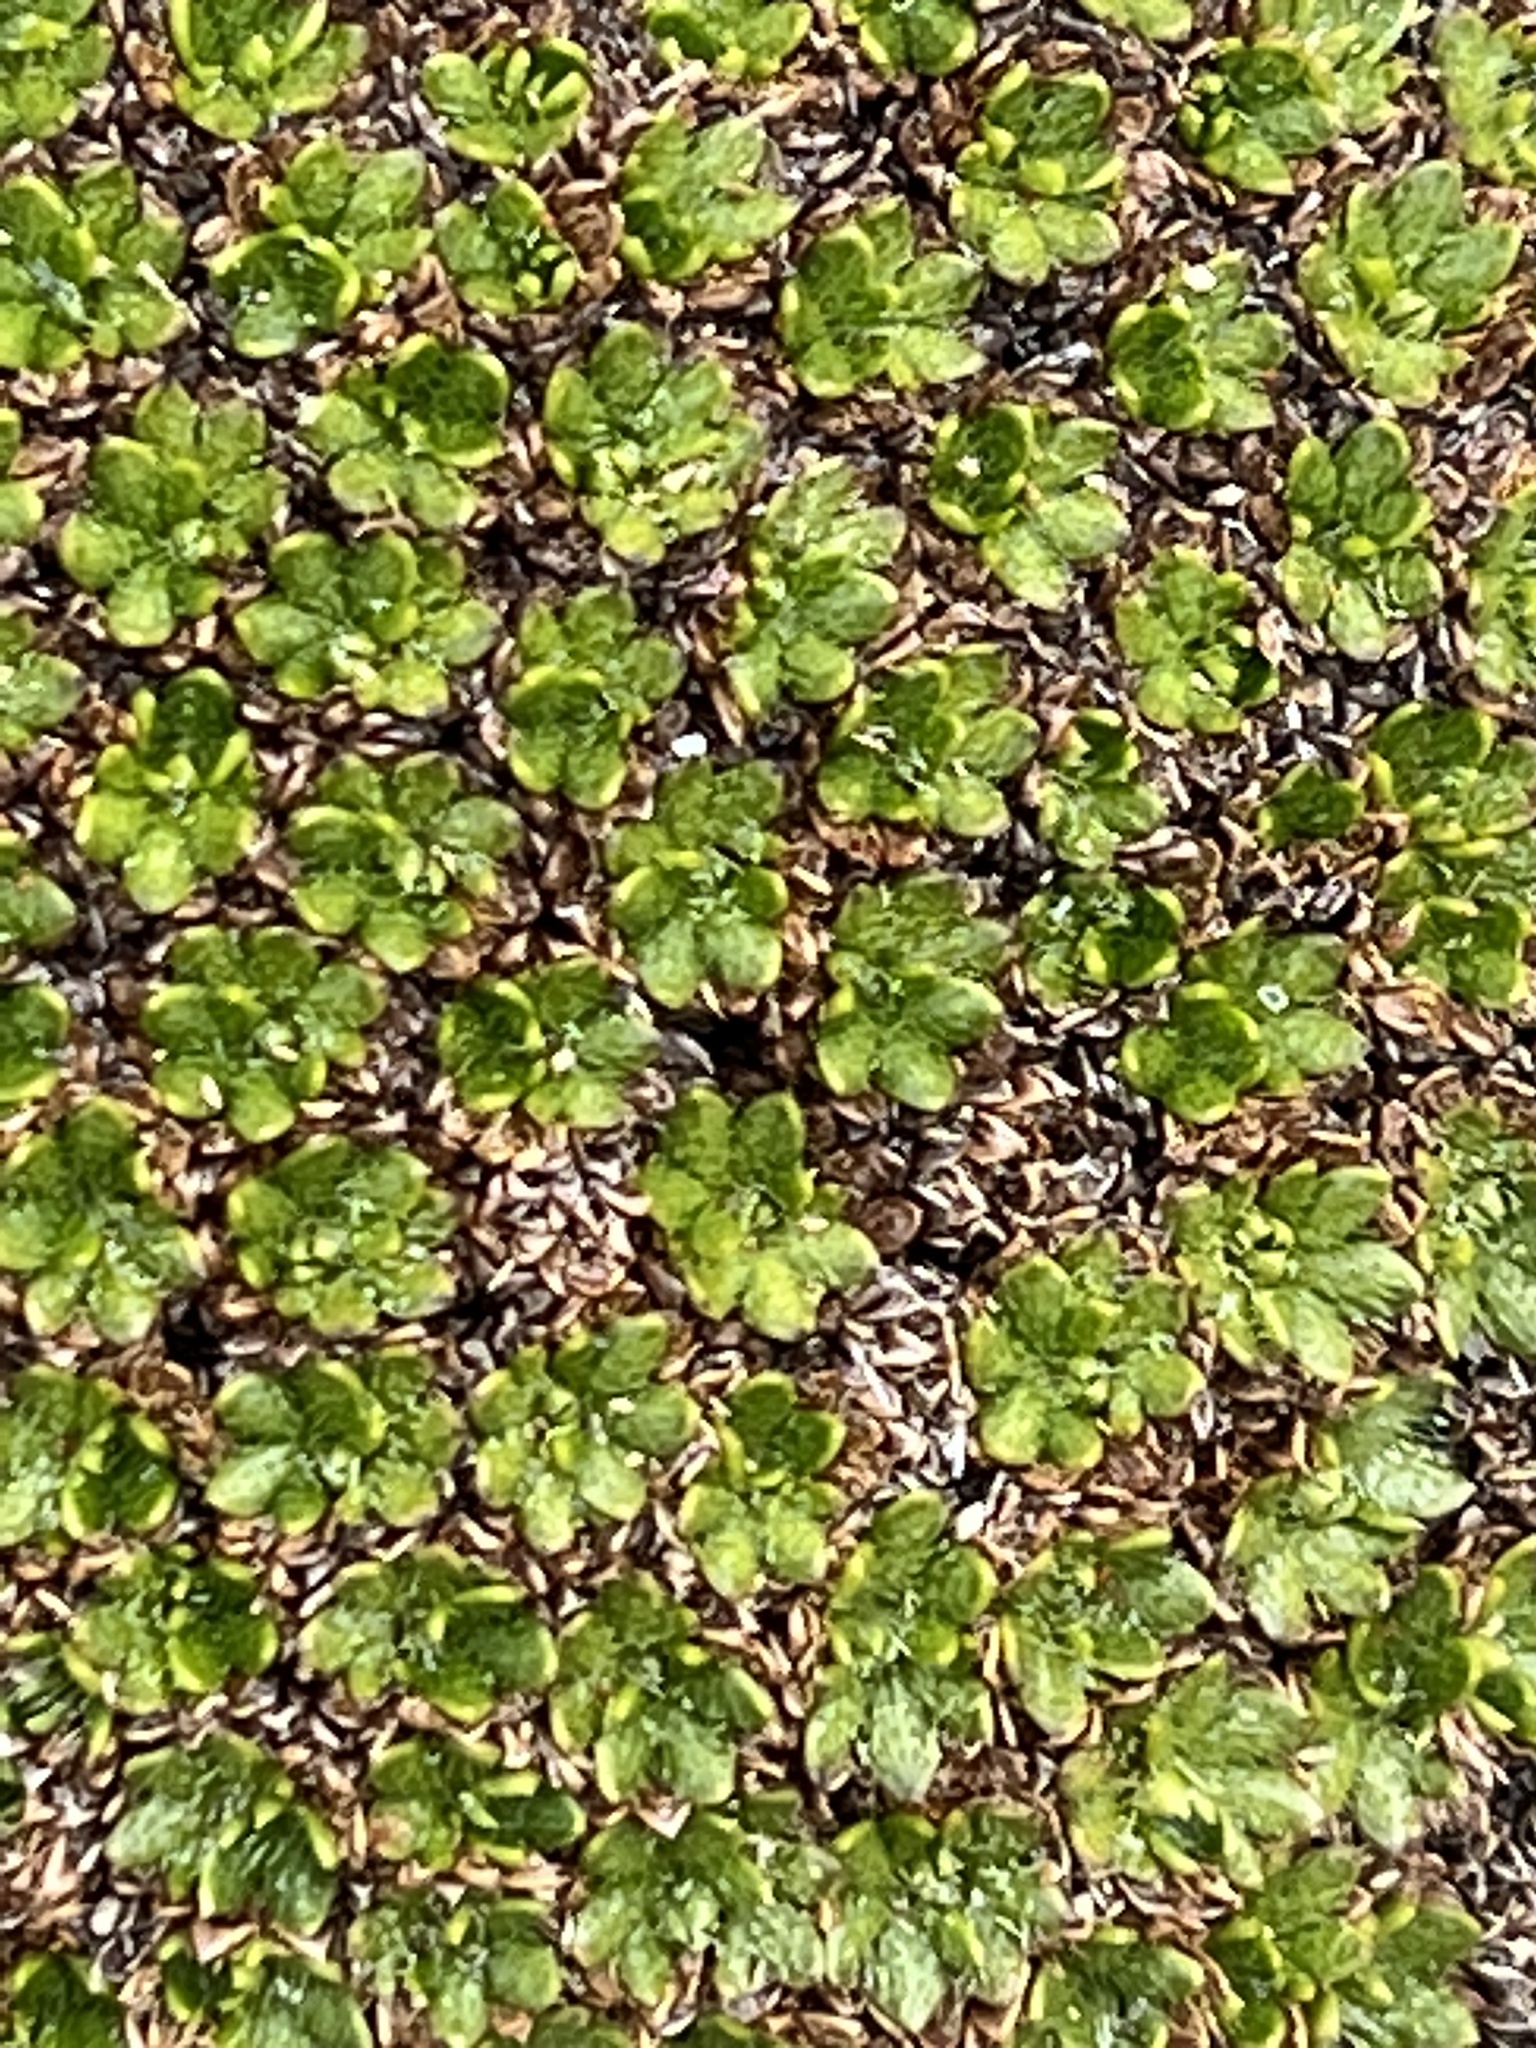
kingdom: Plantae
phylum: Tracheophyta
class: Magnoliopsida
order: Apiales
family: Apiaceae
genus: Azorella
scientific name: Azorella selago
